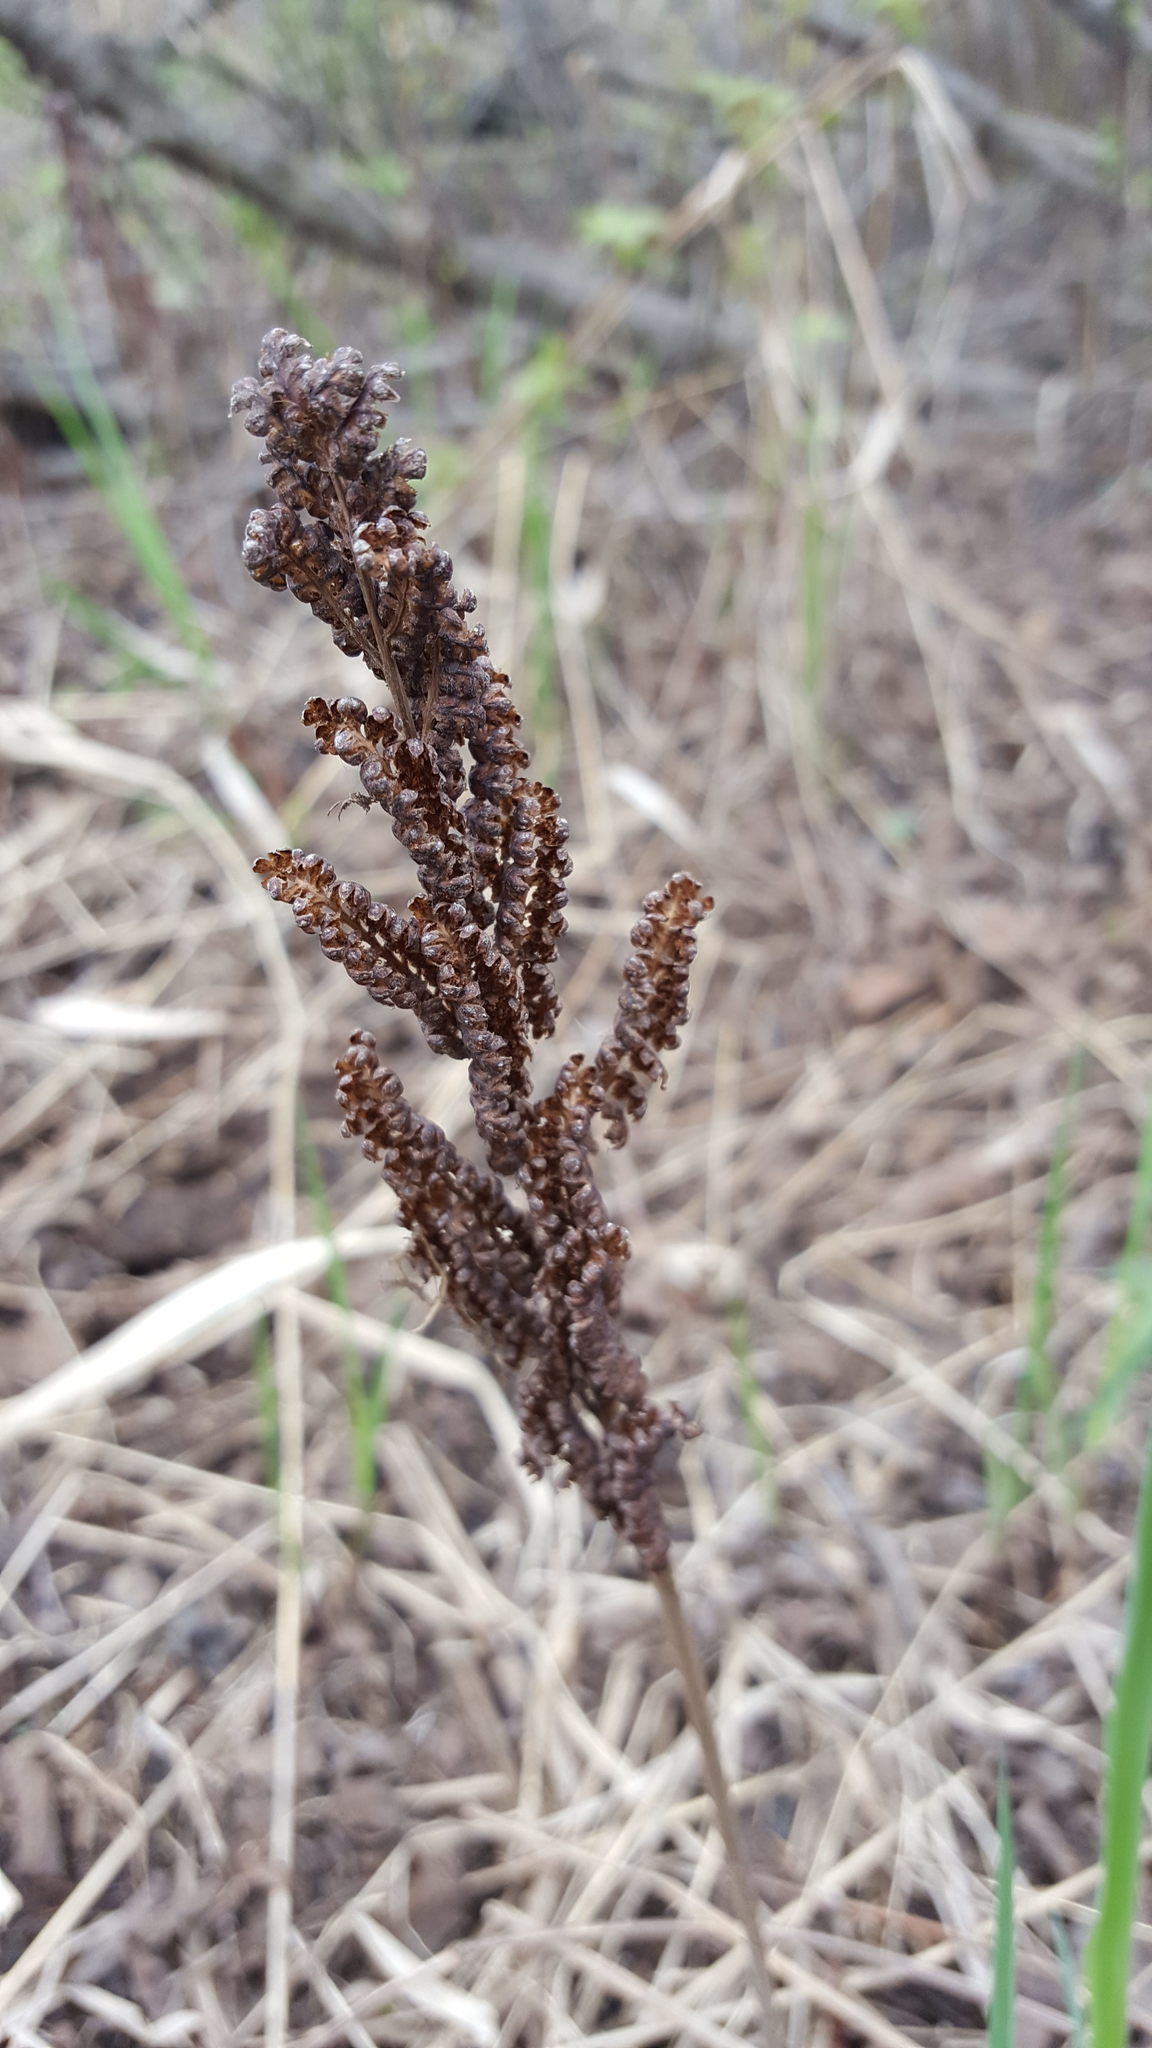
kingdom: Plantae
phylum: Tracheophyta
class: Polypodiopsida
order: Polypodiales
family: Onocleaceae
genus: Onoclea
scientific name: Onoclea sensibilis
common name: Sensitive fern
